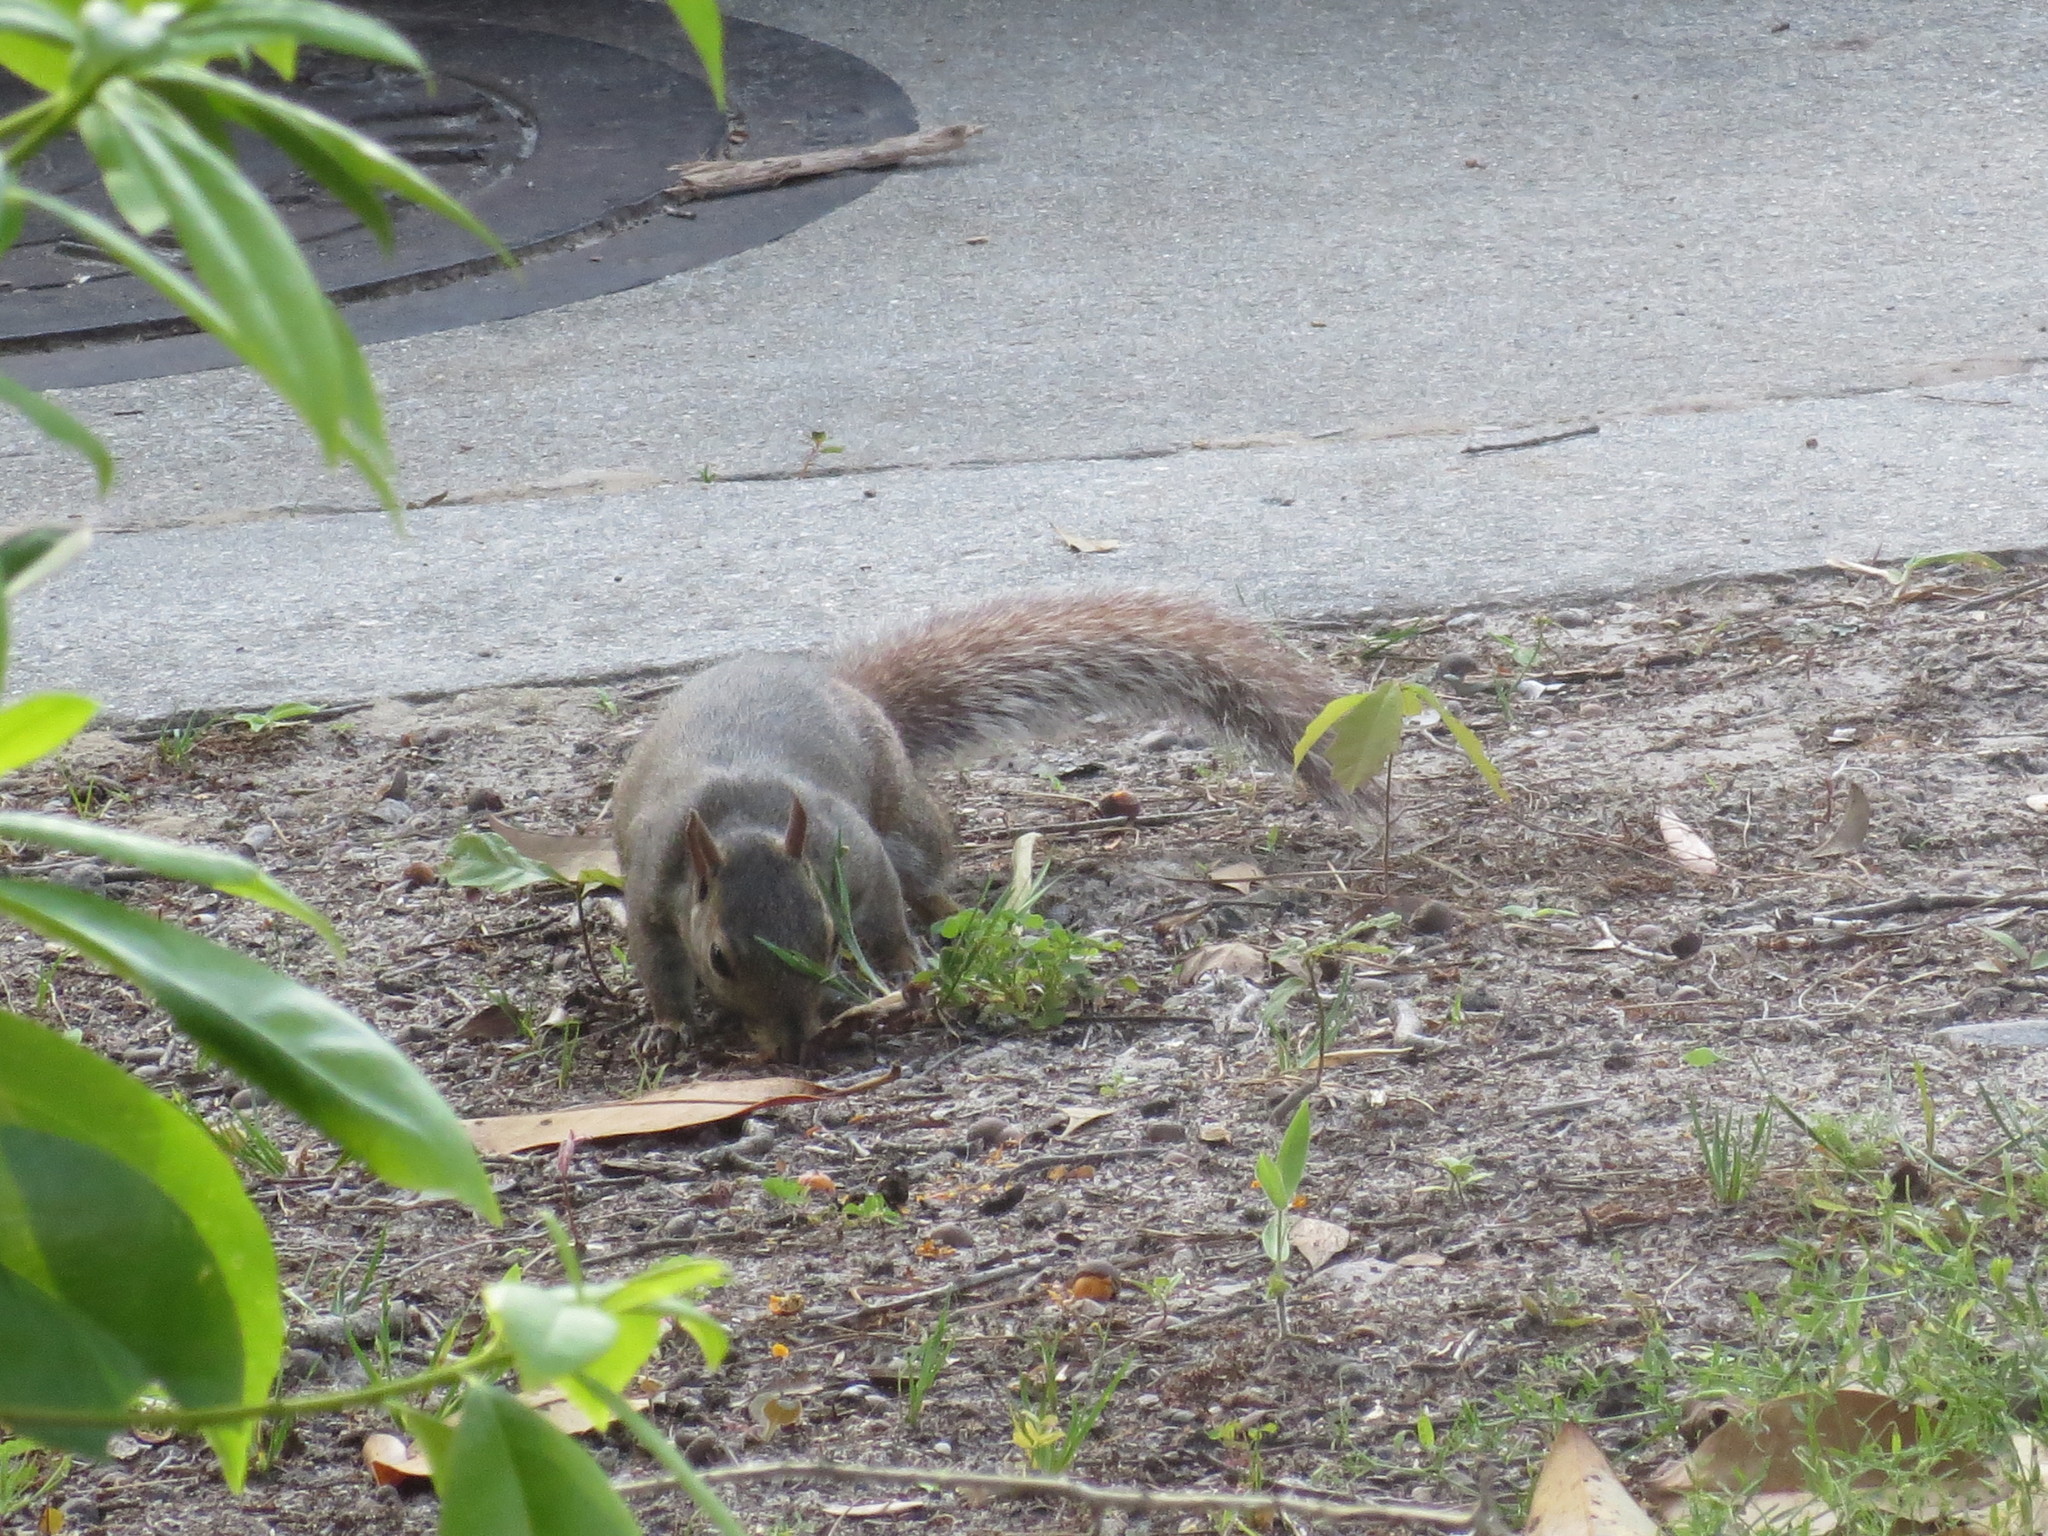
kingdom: Animalia
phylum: Chordata
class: Mammalia
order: Rodentia
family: Sciuridae
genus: Sciurus
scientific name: Sciurus carolinensis
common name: Eastern gray squirrel
